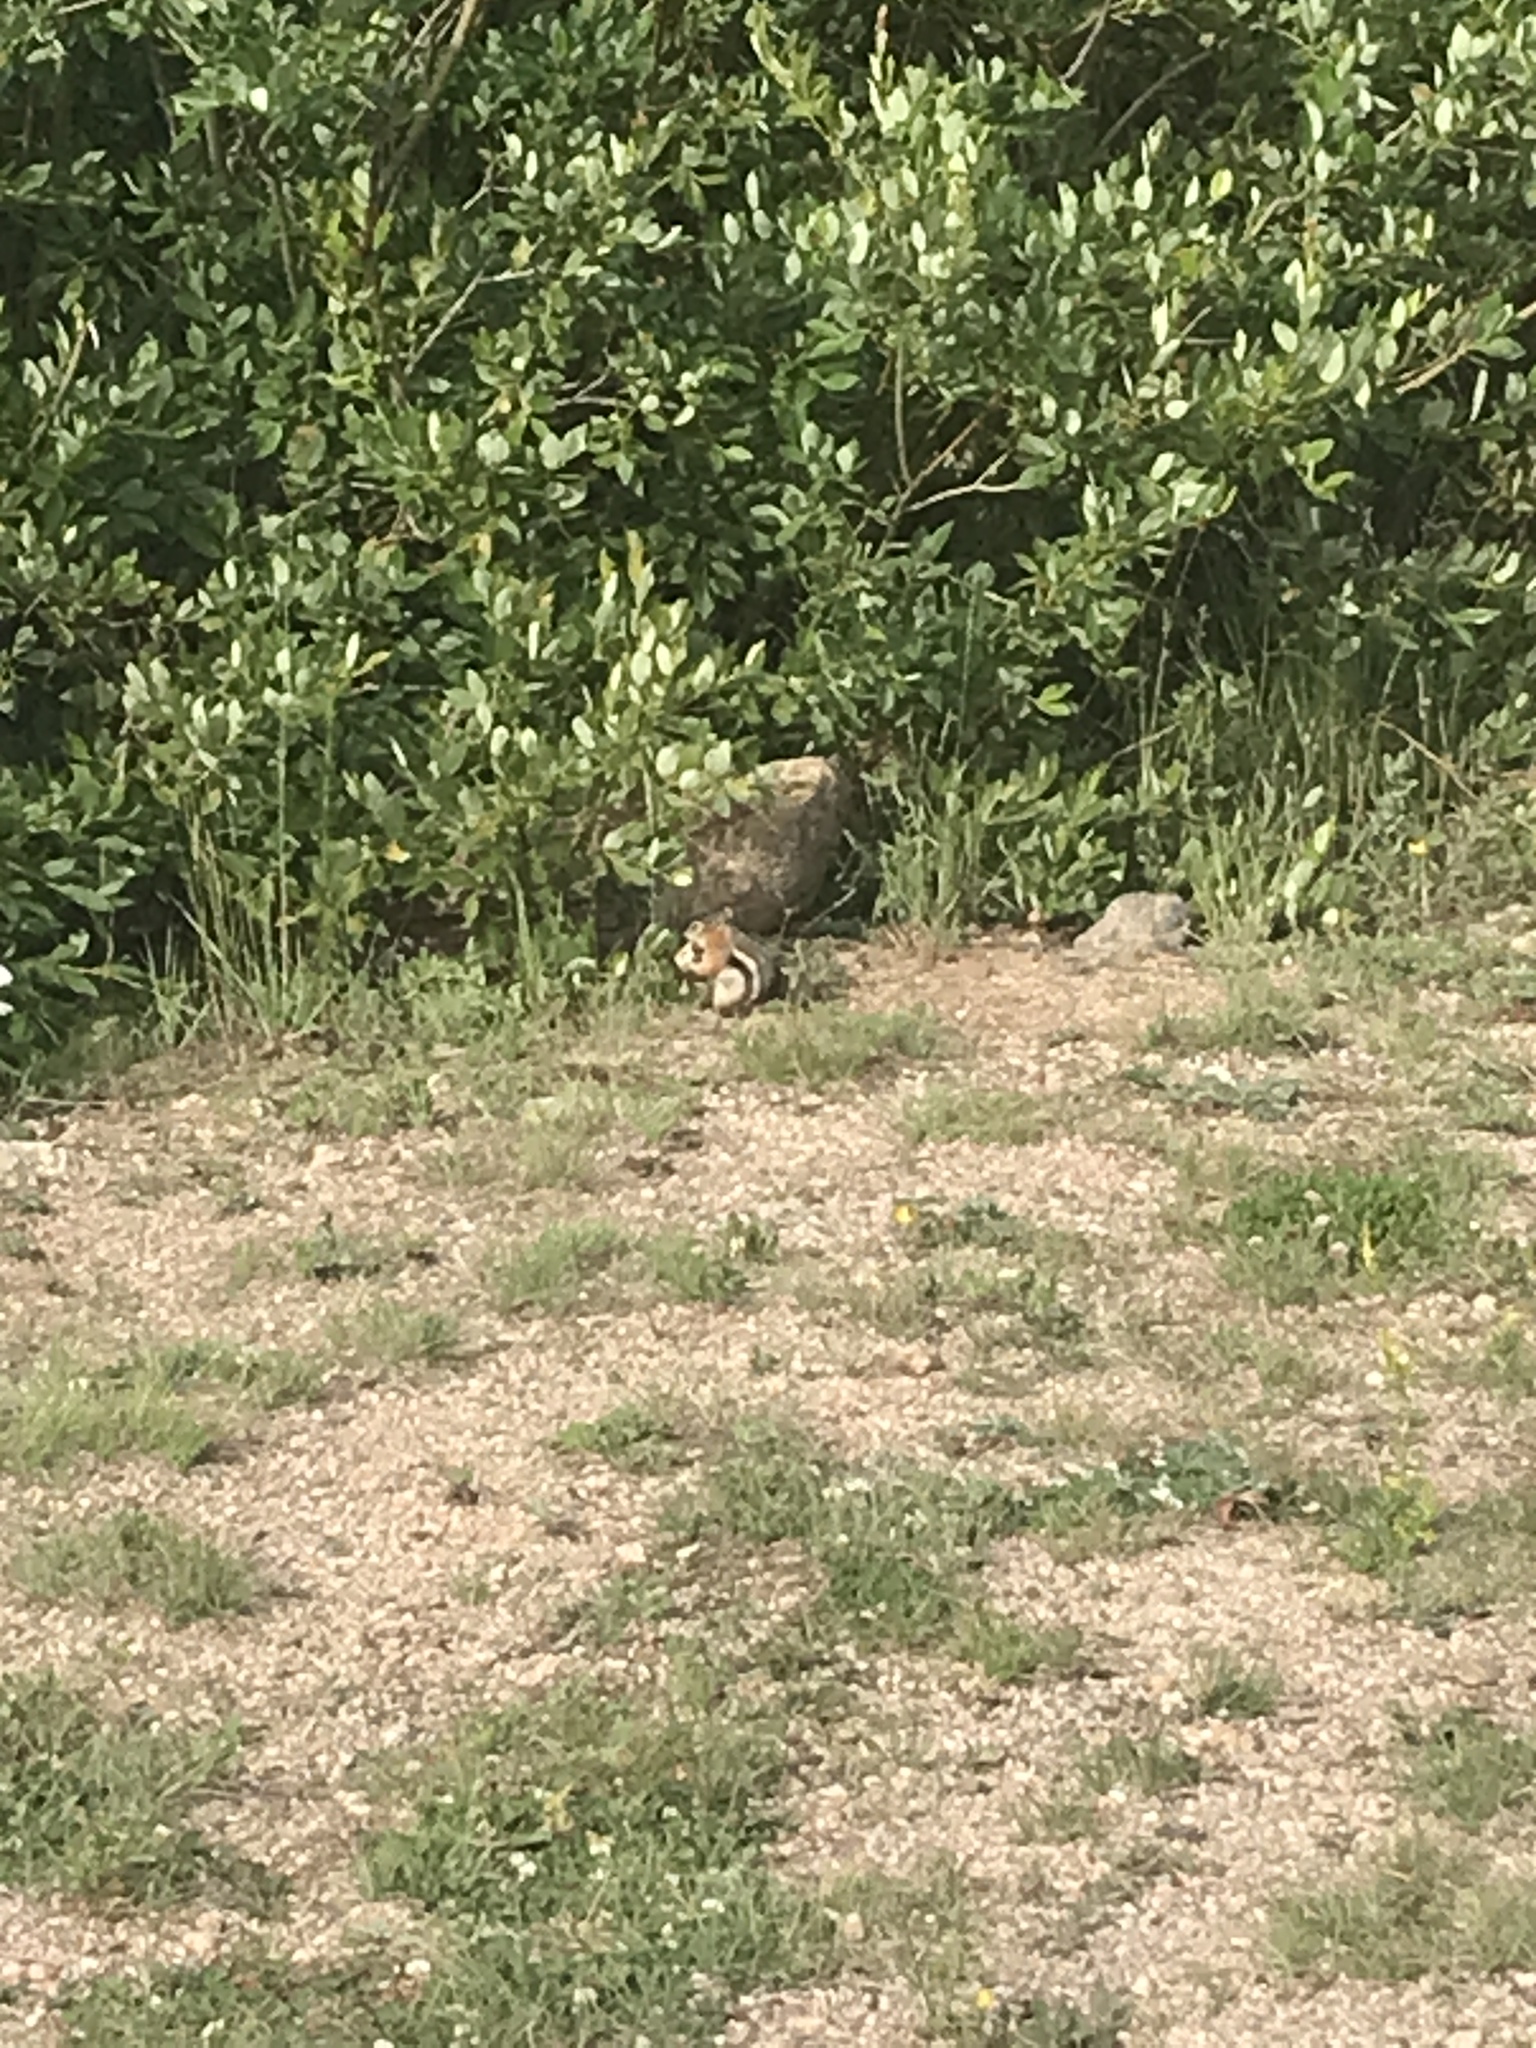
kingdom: Animalia
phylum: Chordata
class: Mammalia
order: Rodentia
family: Sciuridae
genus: Callospermophilus
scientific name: Callospermophilus lateralis
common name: Golden-mantled ground squirrel
